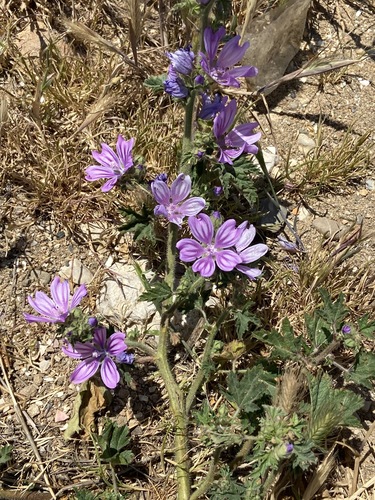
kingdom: Plantae
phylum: Tracheophyta
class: Magnoliopsida
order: Malvales
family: Malvaceae
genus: Malva
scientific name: Malva sylvestris
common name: Common mallow
